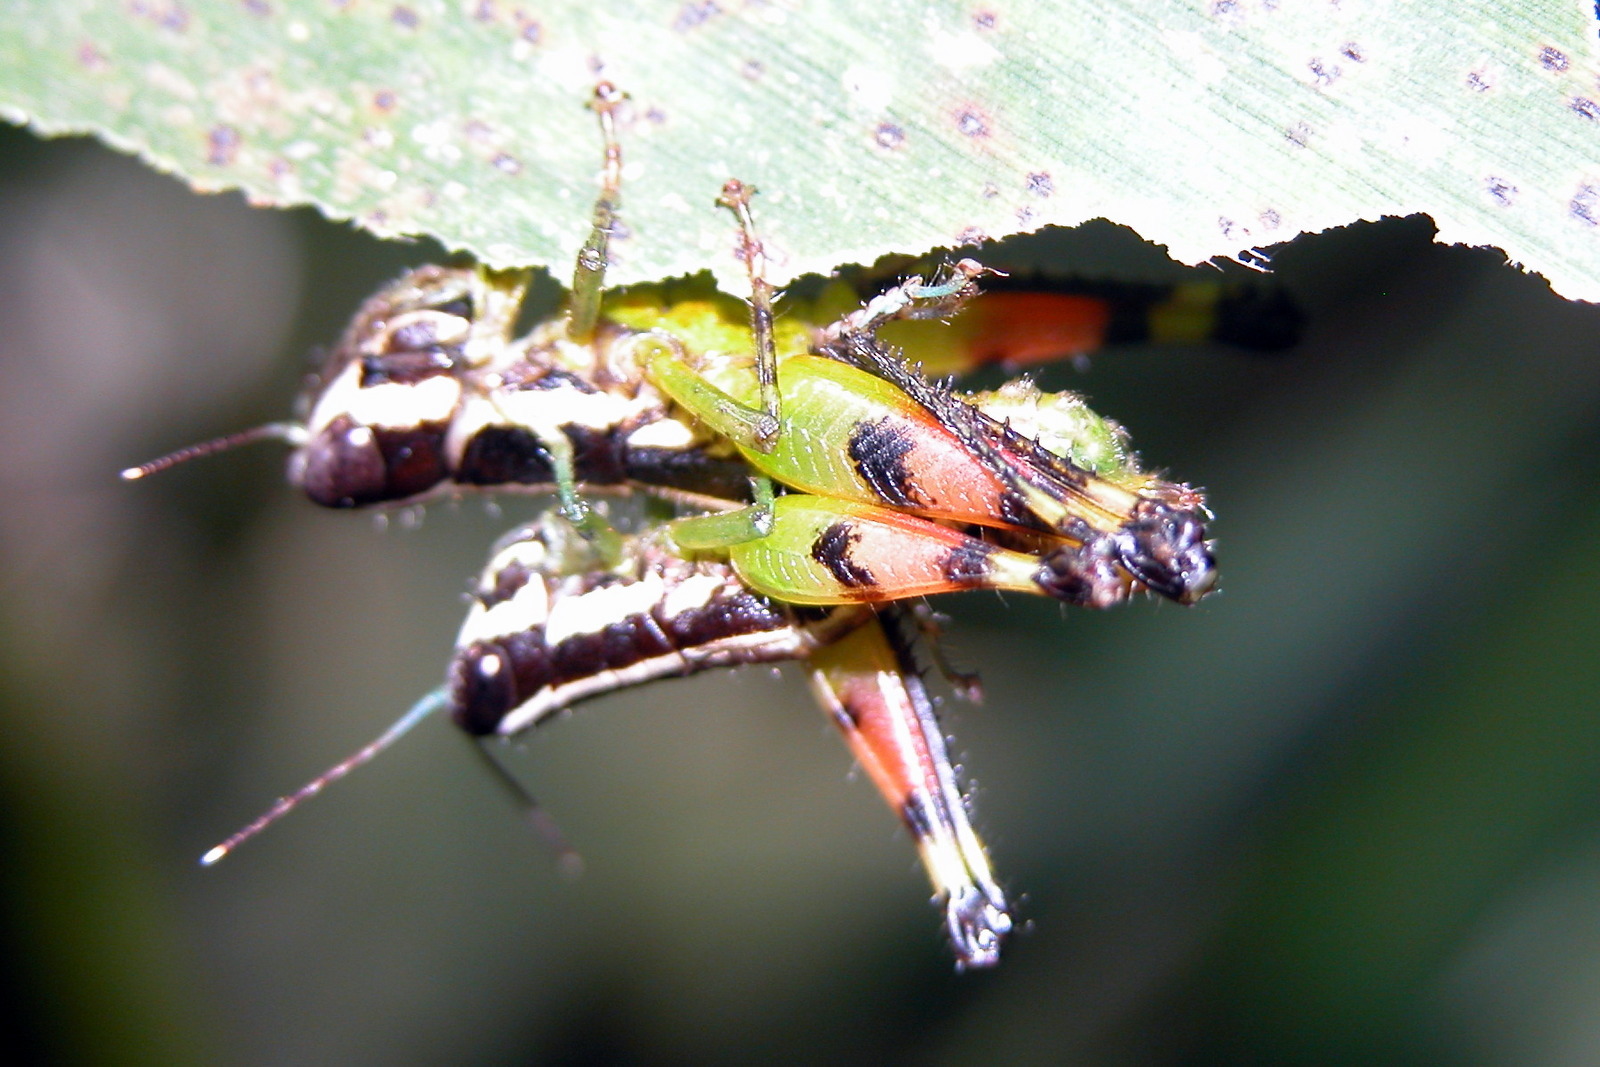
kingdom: Animalia
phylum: Arthropoda
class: Insecta
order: Orthoptera
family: Acrididae
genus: Chitaura
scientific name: Chitaura indica
